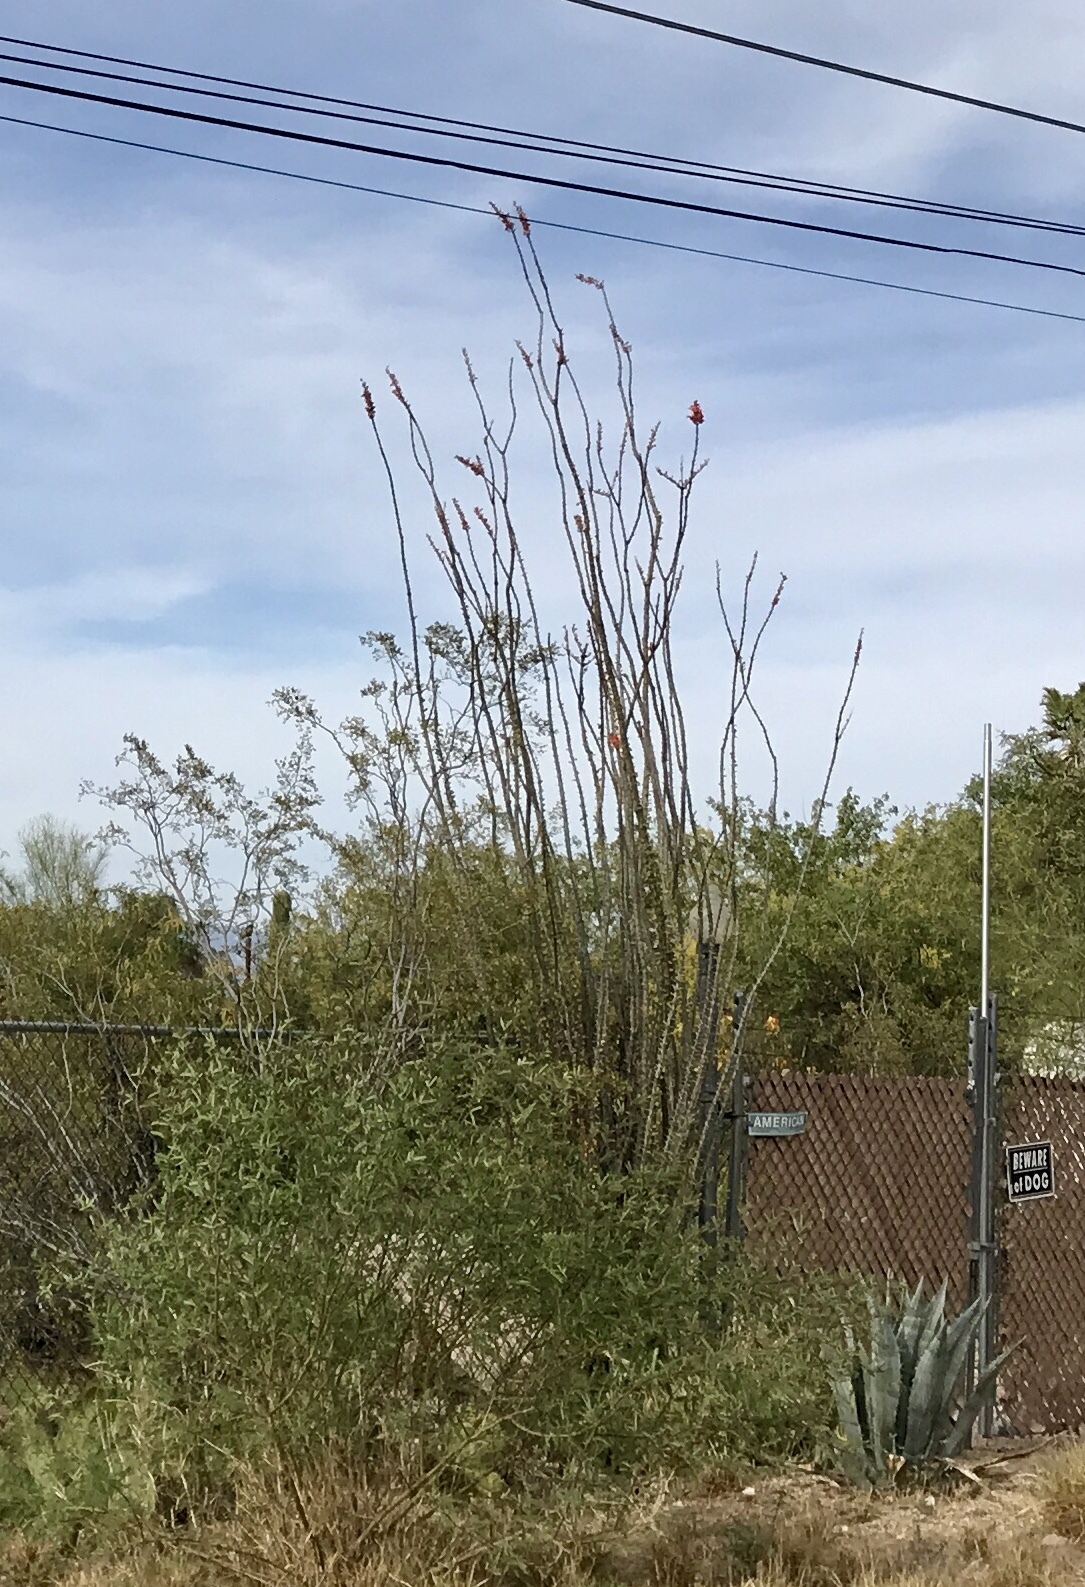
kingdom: Plantae
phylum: Tracheophyta
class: Magnoliopsida
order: Ericales
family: Fouquieriaceae
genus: Fouquieria
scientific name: Fouquieria splendens
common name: Vine-cactus
